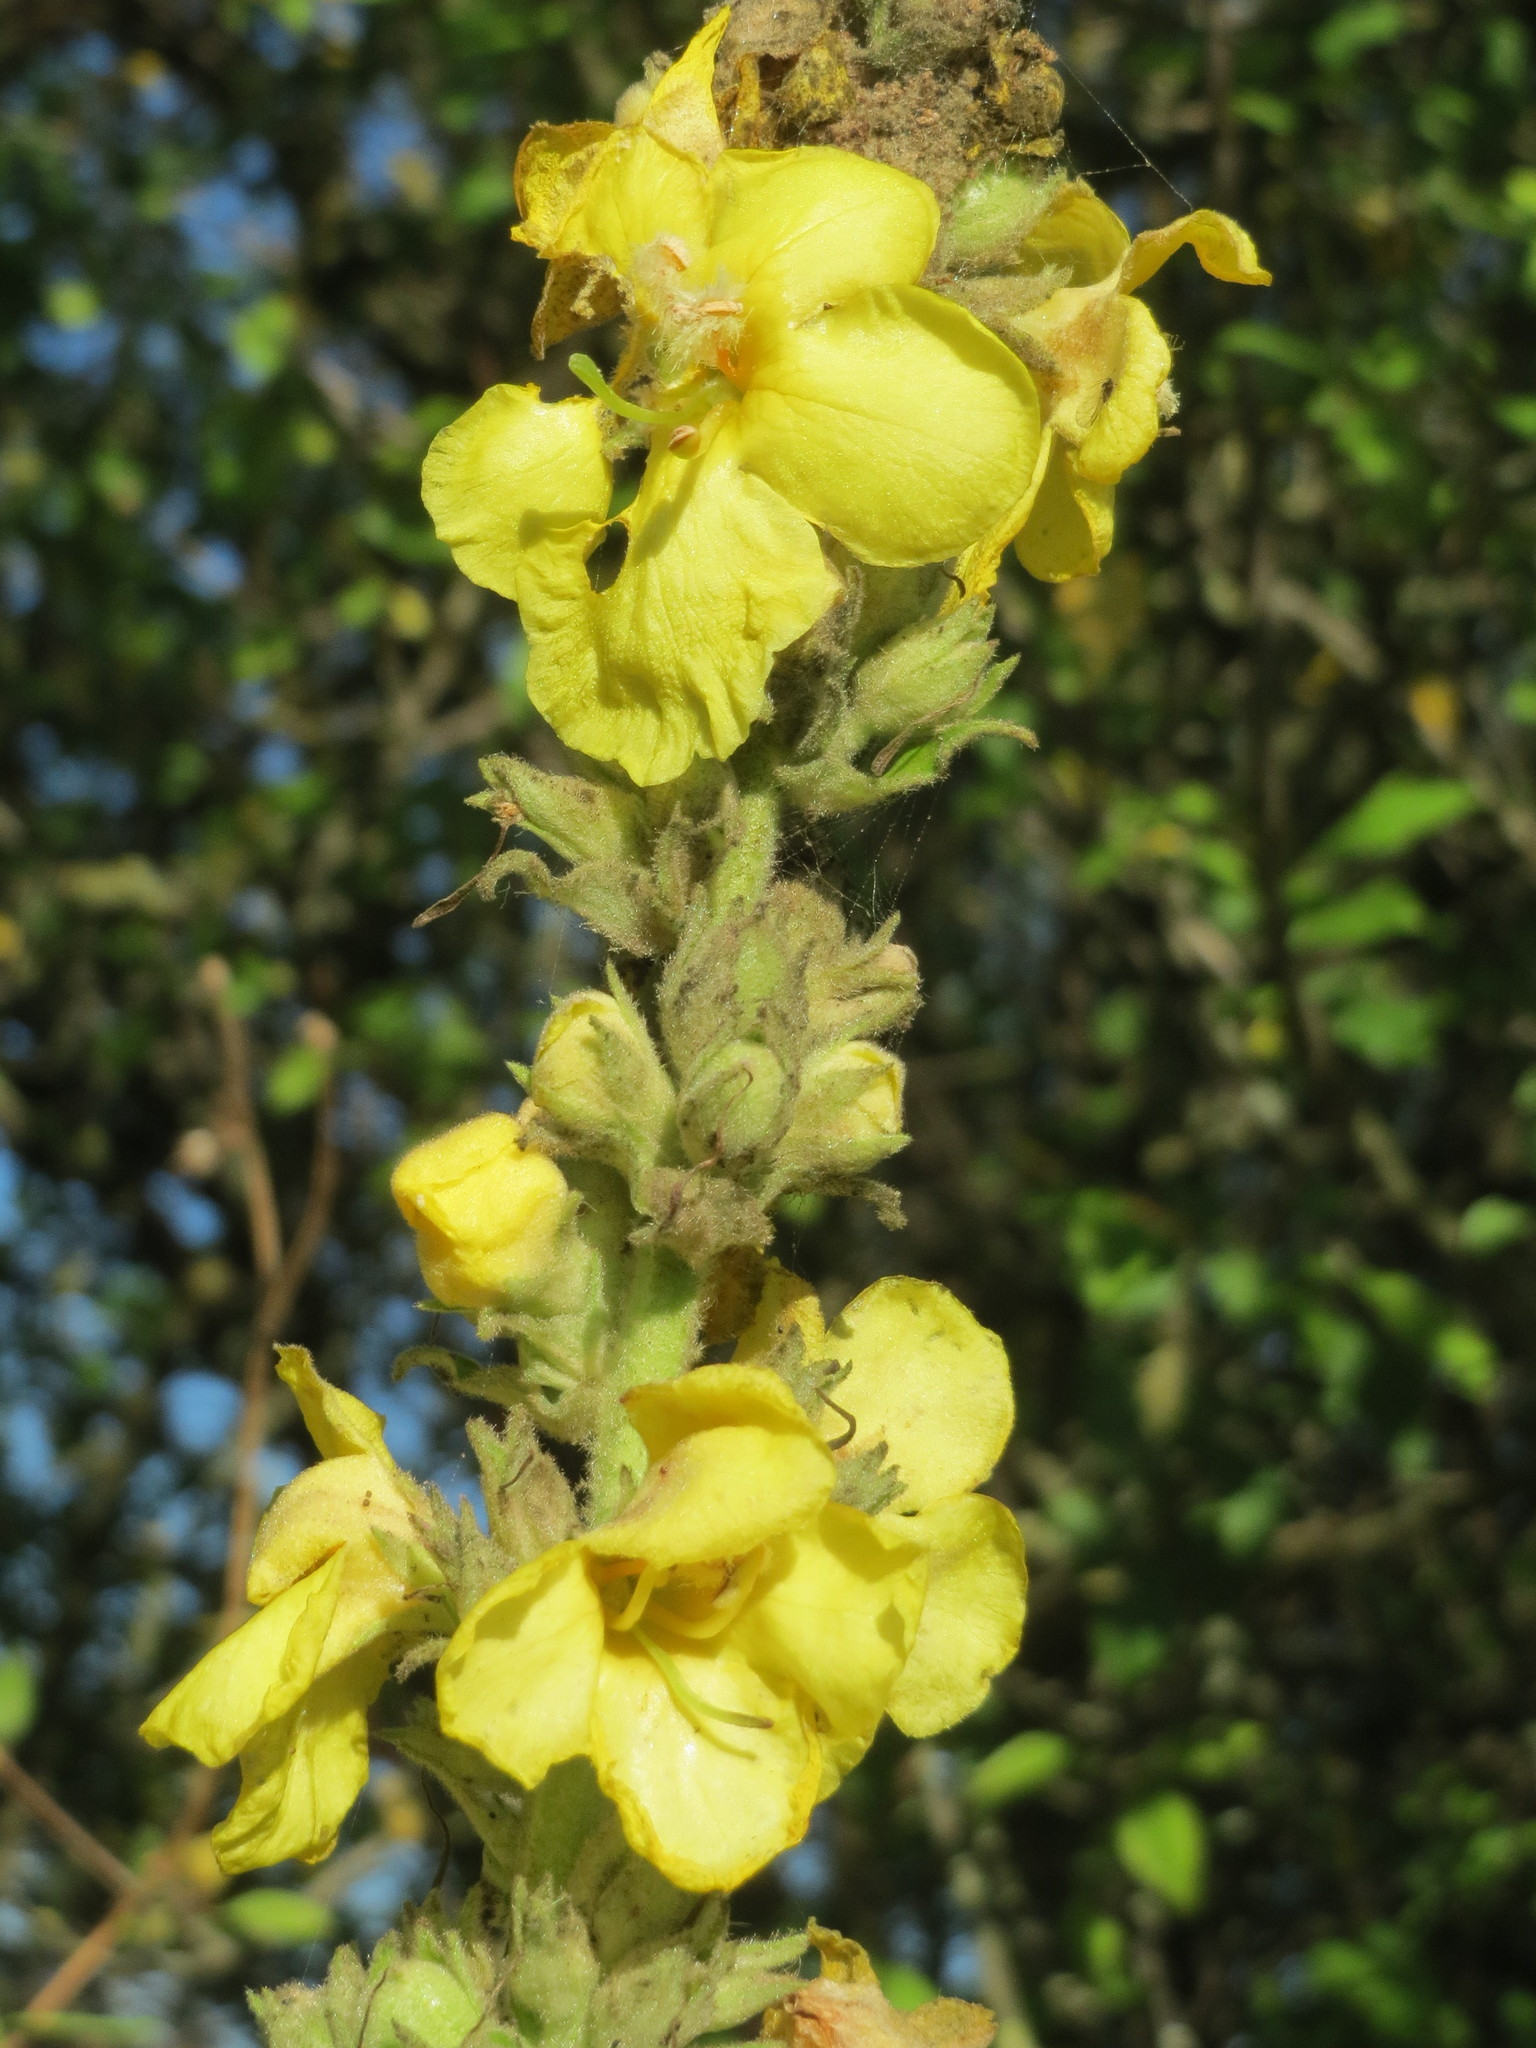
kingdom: Plantae
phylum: Tracheophyta
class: Magnoliopsida
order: Lamiales
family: Scrophulariaceae
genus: Verbascum
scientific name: Verbascum thapsus
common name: Common mullein
